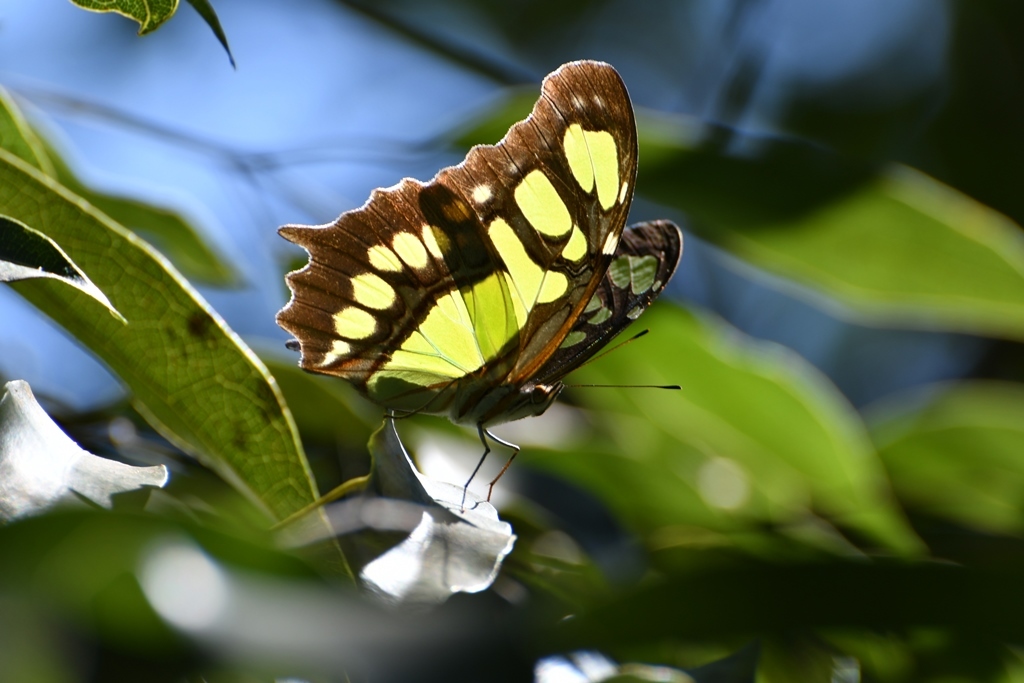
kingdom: Animalia
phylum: Arthropoda
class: Insecta
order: Lepidoptera
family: Nymphalidae
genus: Siproeta
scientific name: Siproeta stelenes
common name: Malachite
